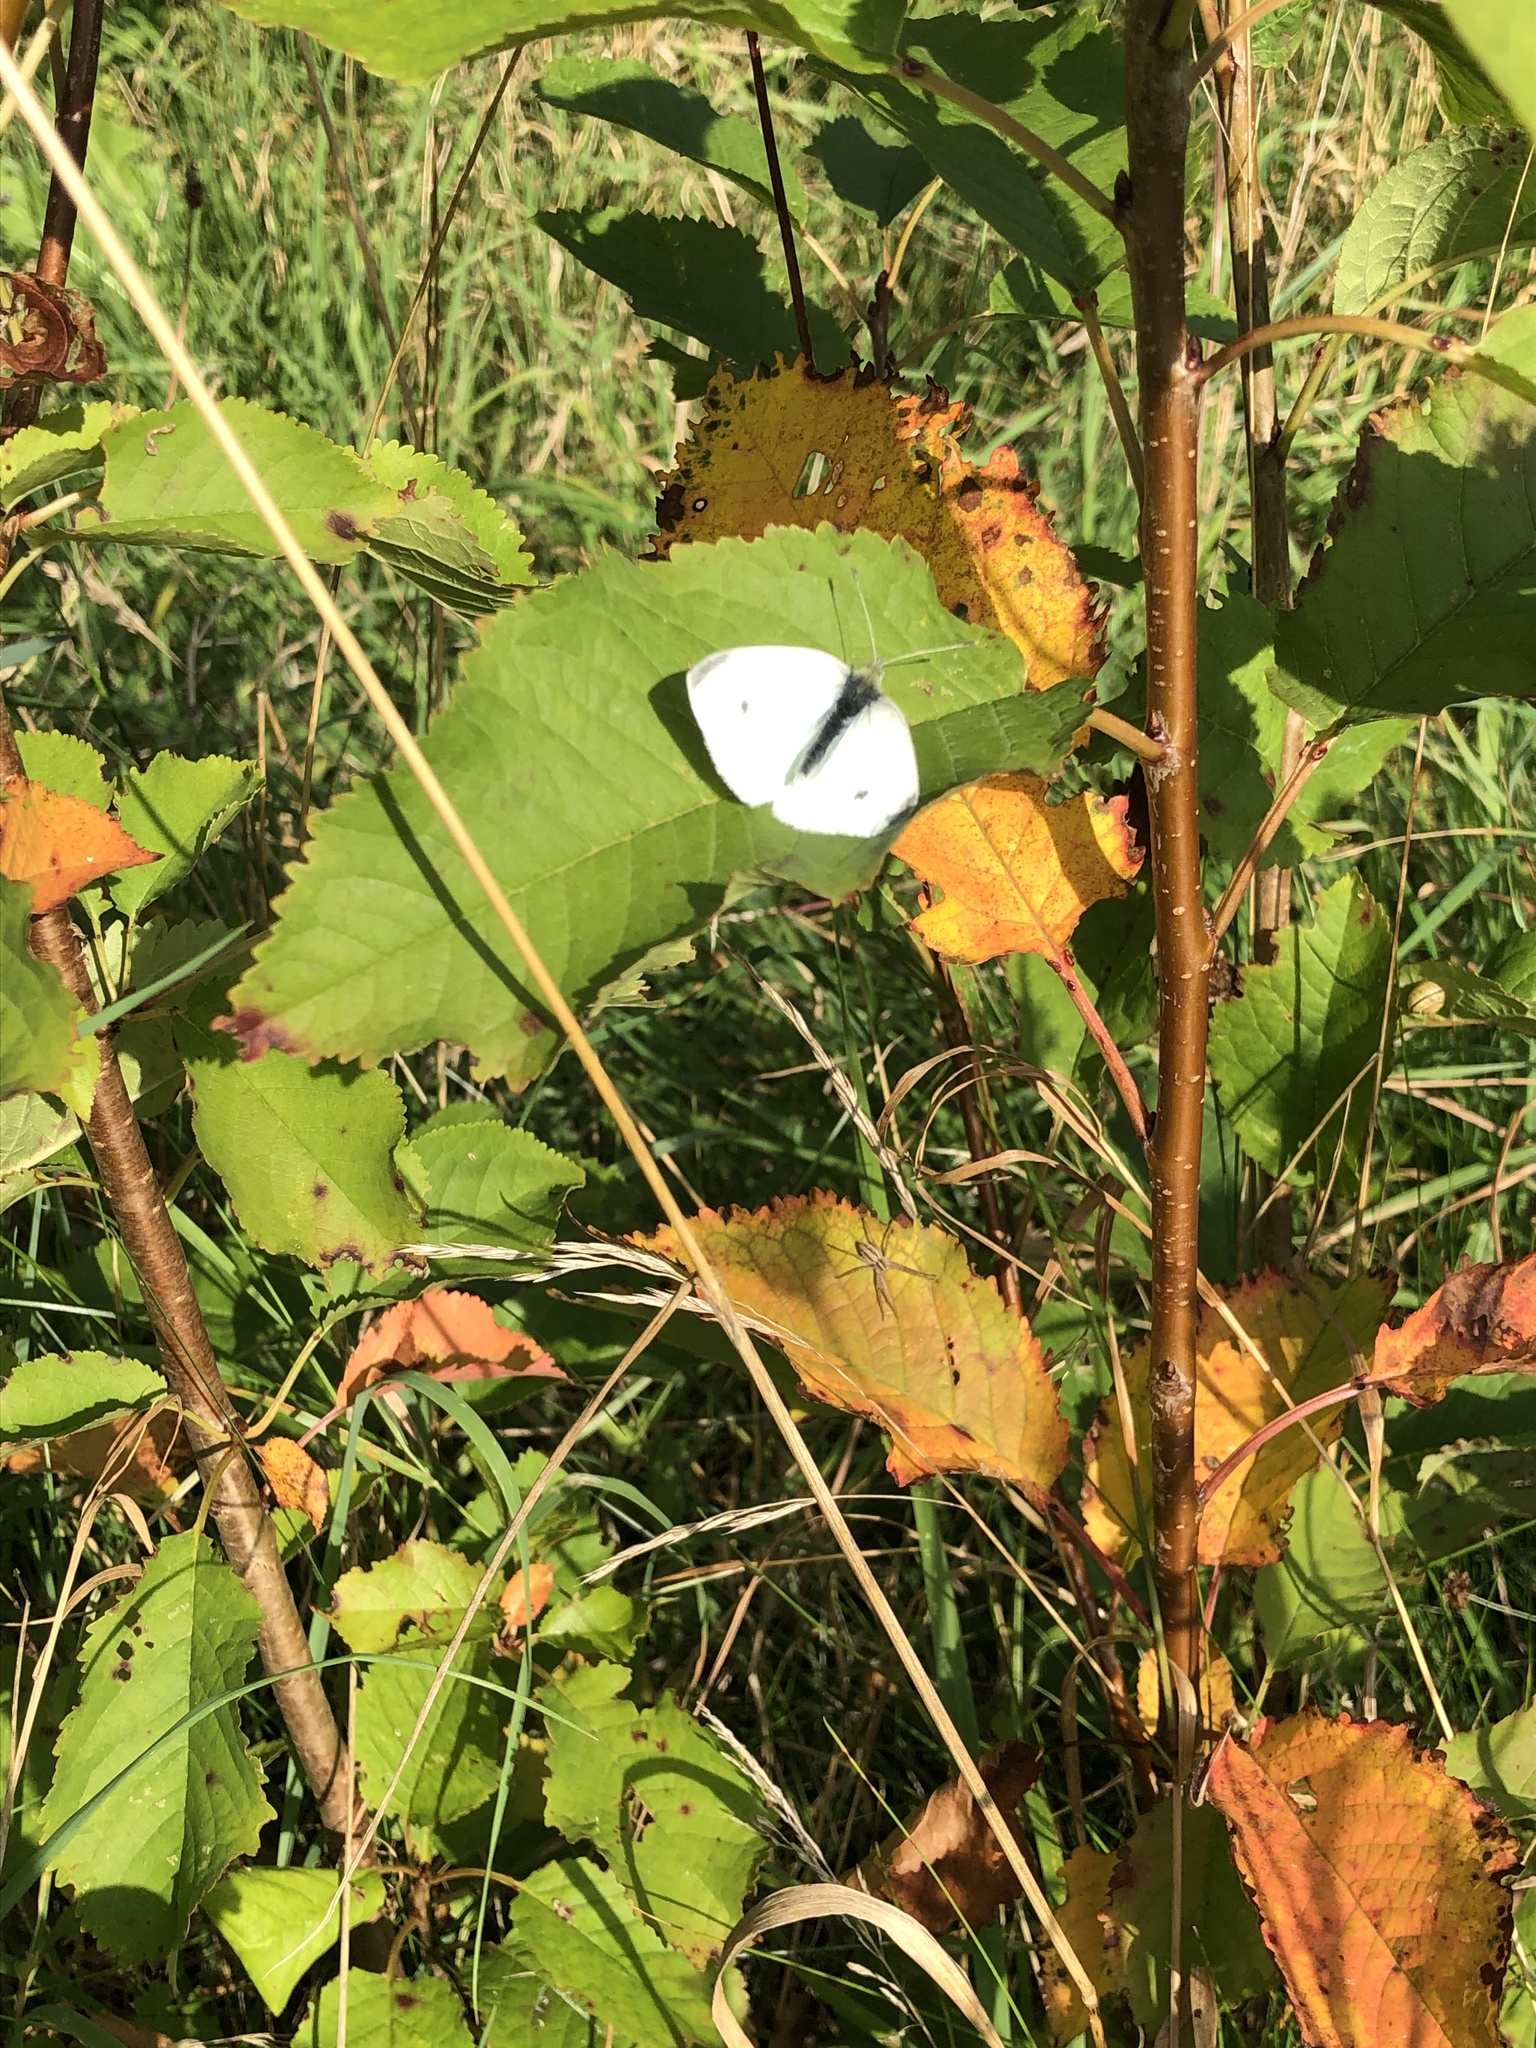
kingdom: Animalia
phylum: Arthropoda
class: Insecta
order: Lepidoptera
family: Pieridae
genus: Pieris
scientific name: Pieris rapae
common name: Small white
